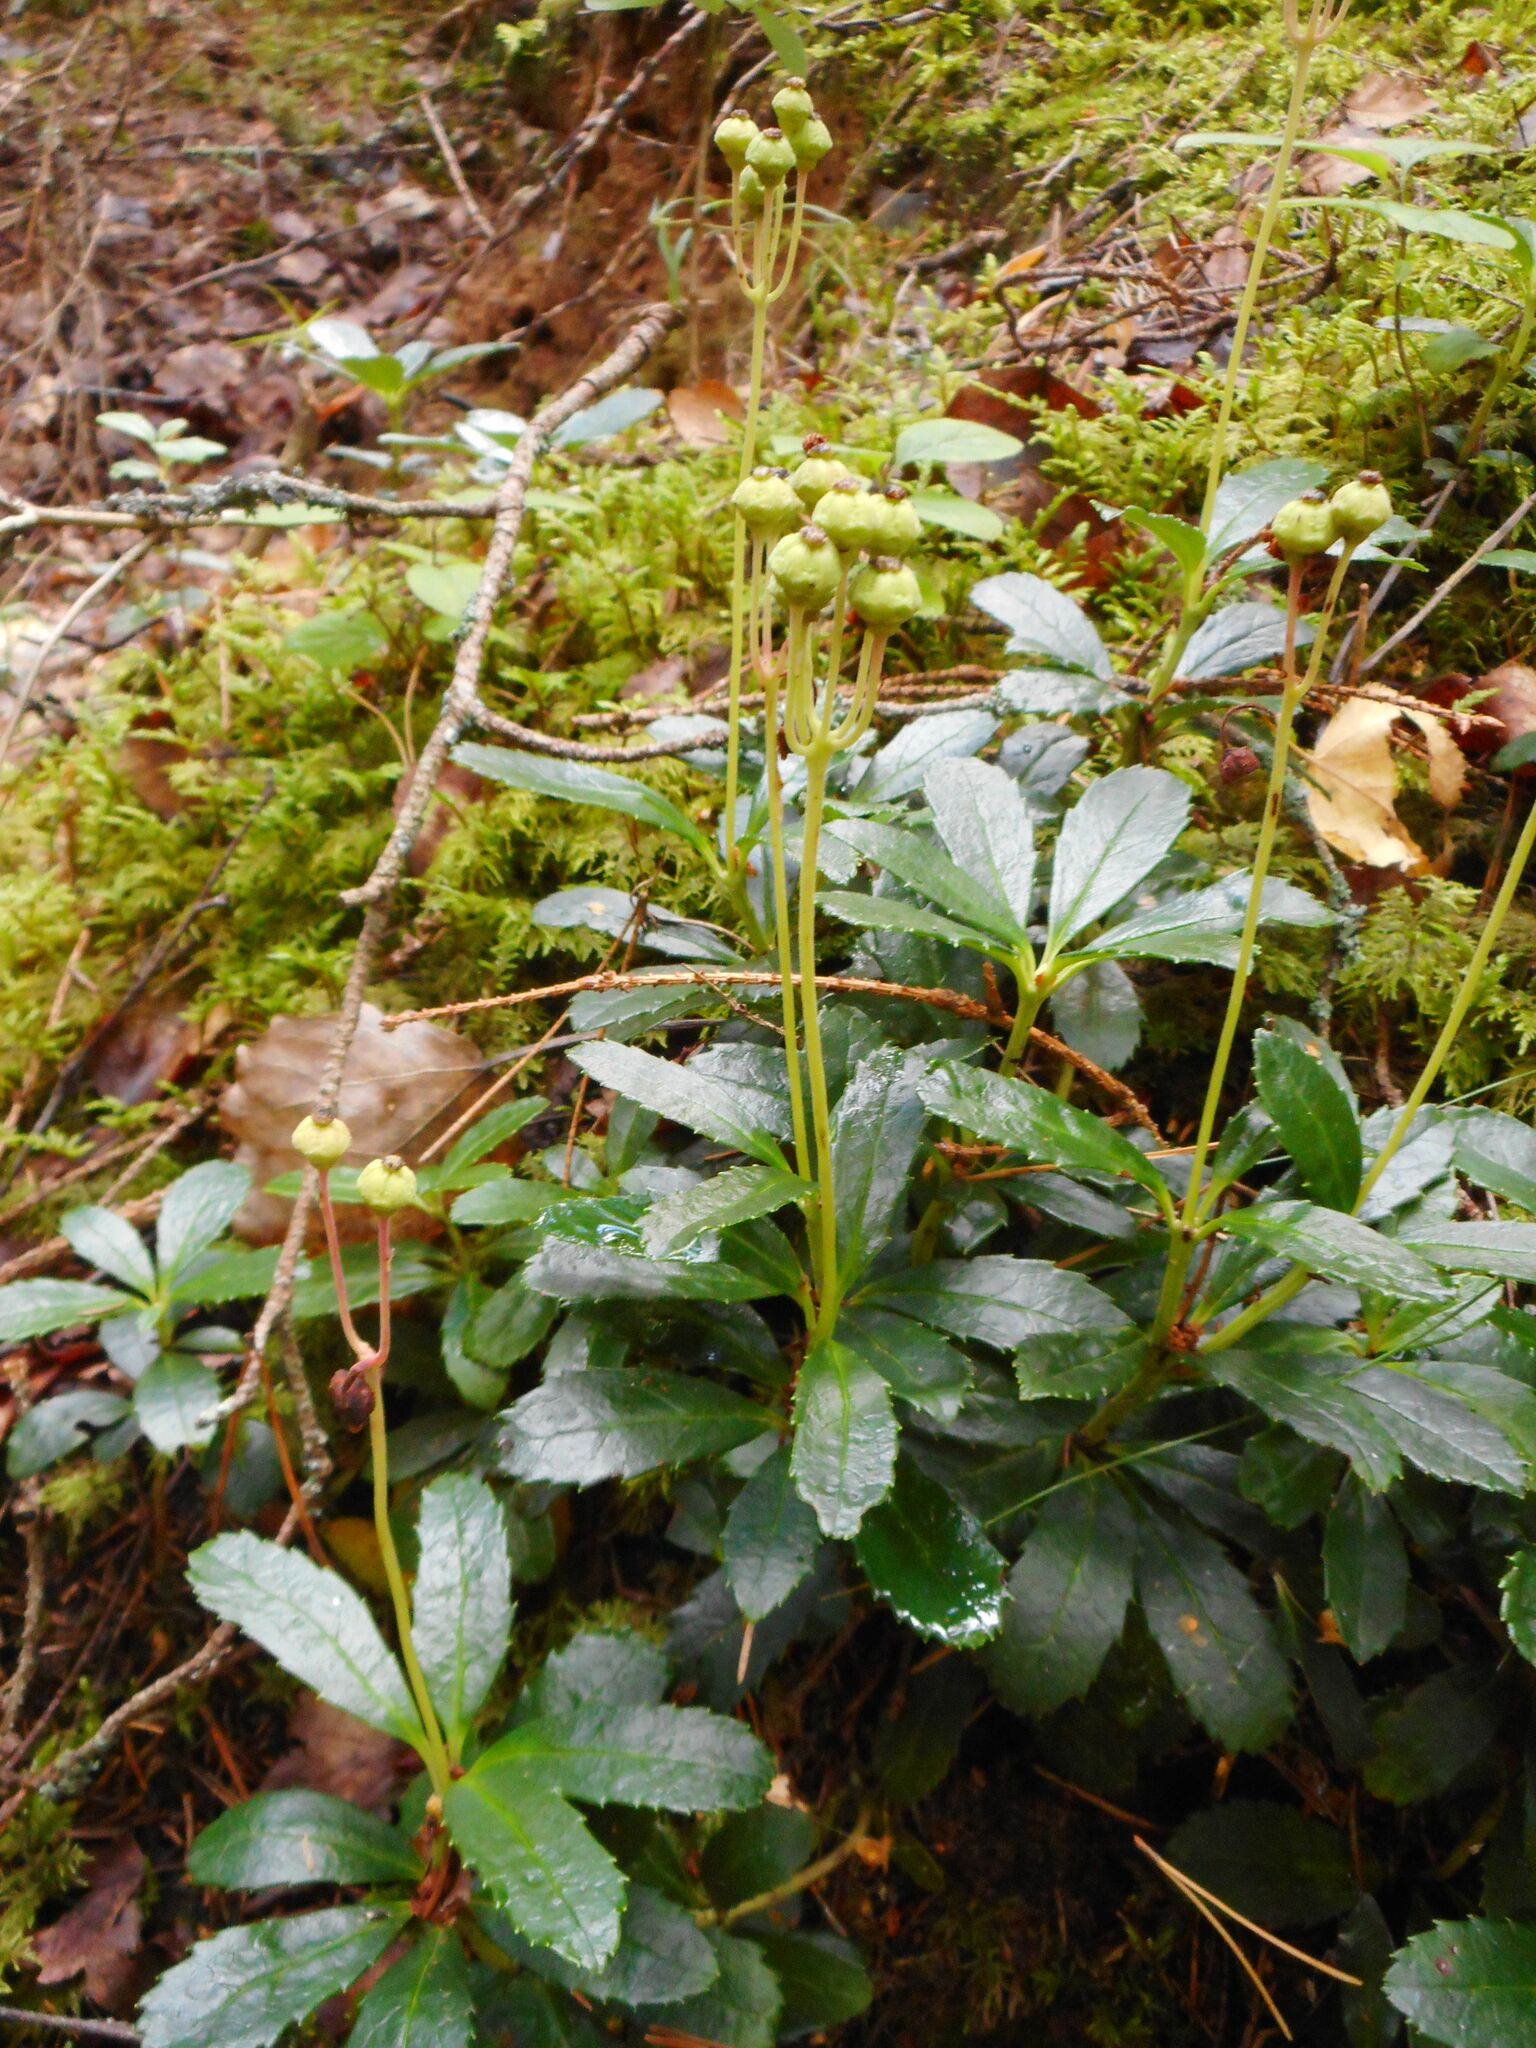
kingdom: Plantae
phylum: Tracheophyta
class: Magnoliopsida
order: Ericales
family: Ericaceae
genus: Chimaphila
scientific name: Chimaphila umbellata
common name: Pipsissewa
